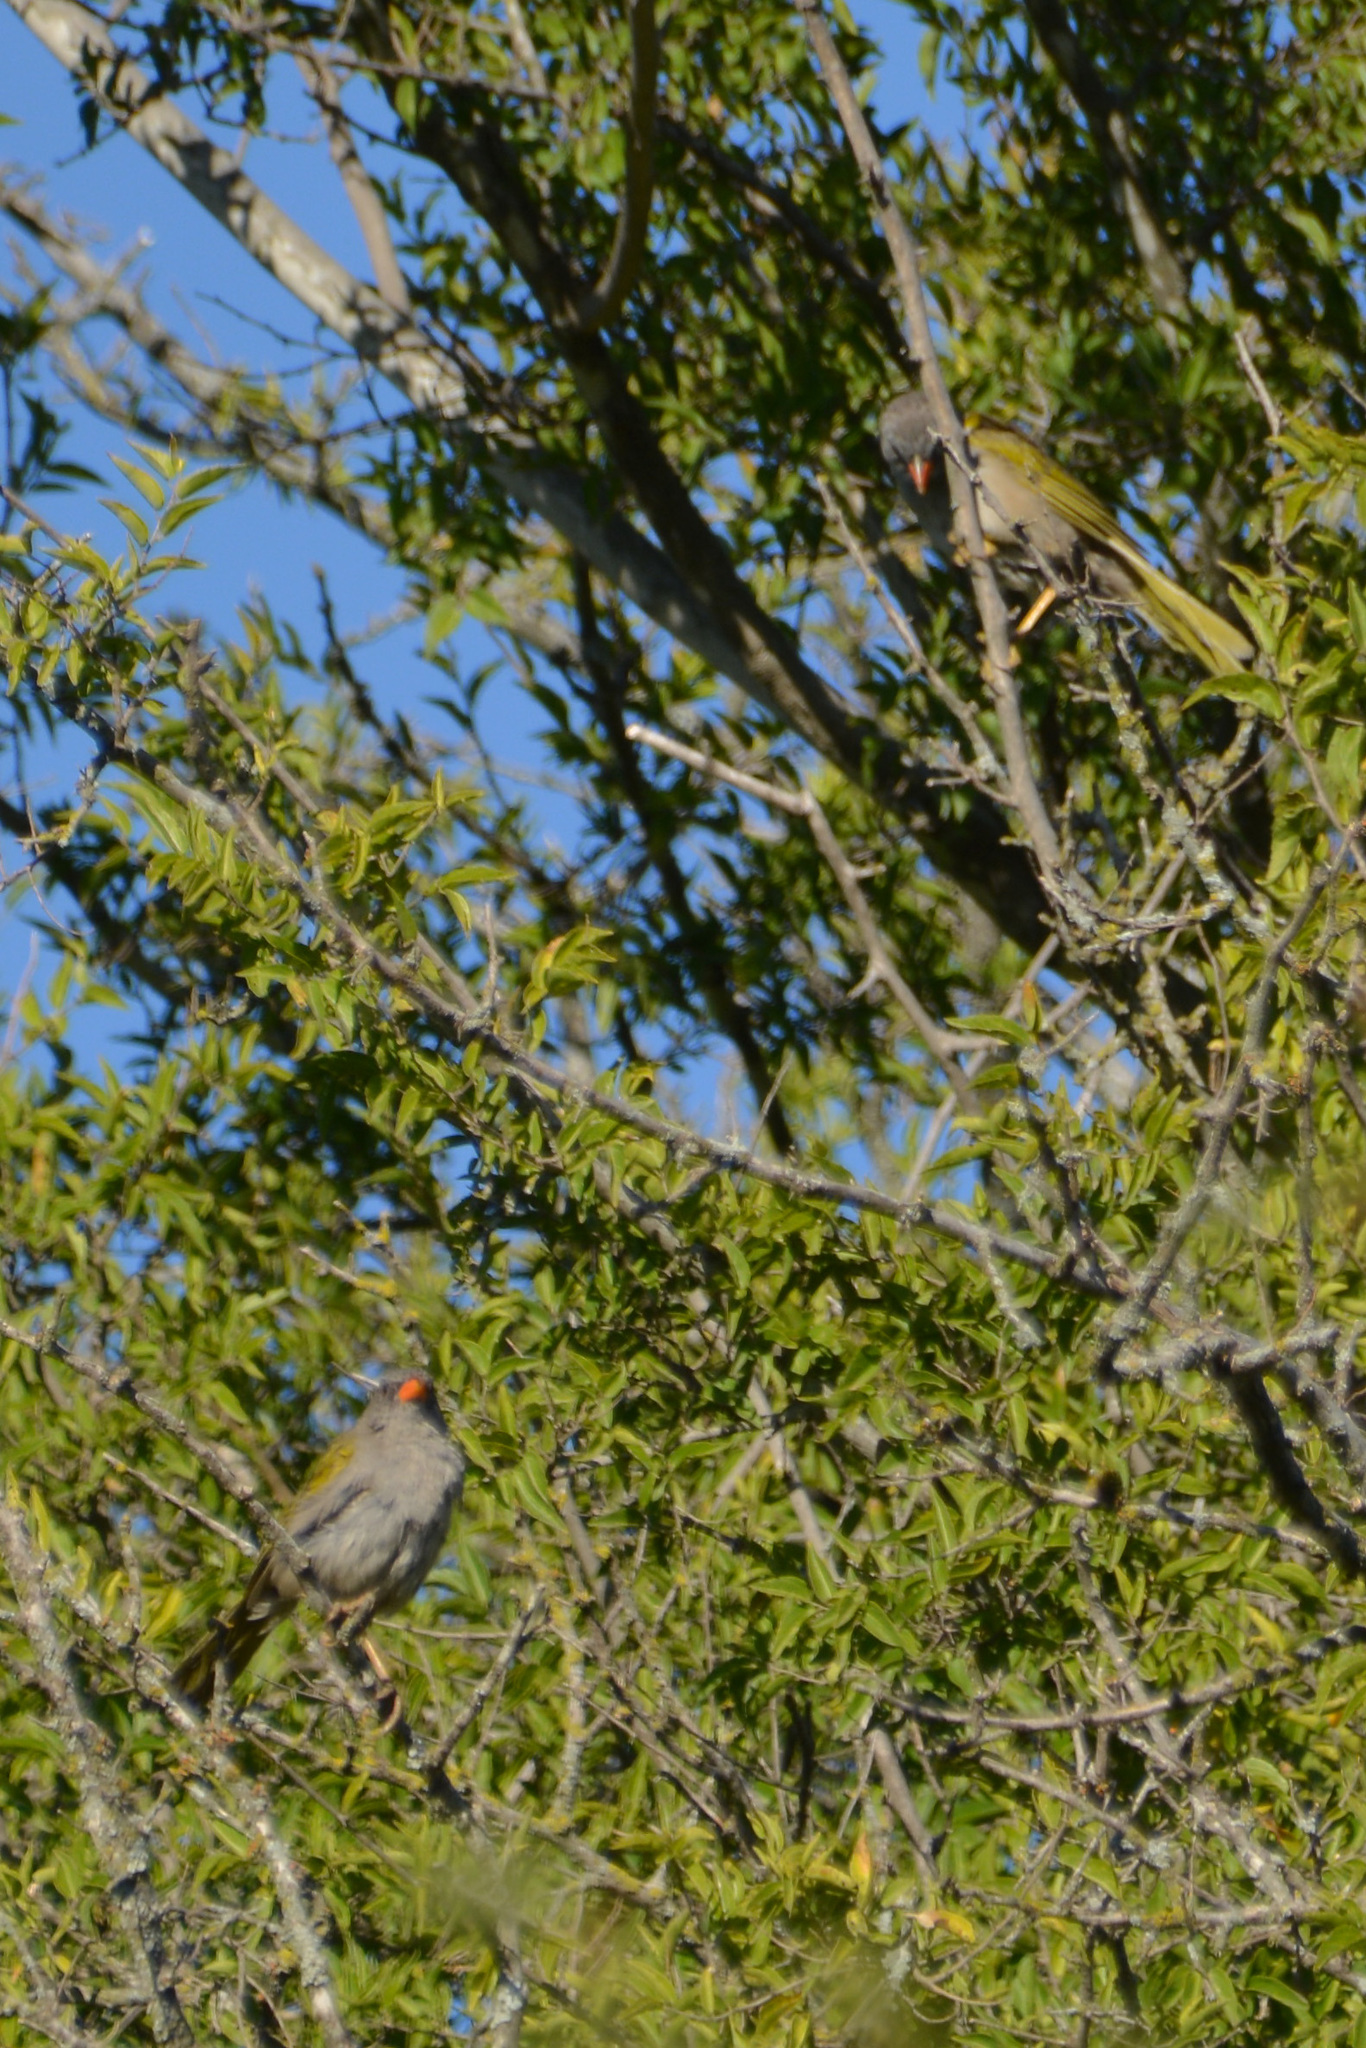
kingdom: Animalia
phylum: Chordata
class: Aves
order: Passeriformes
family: Thraupidae
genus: Embernagra
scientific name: Embernagra platensis
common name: Pampa finch
